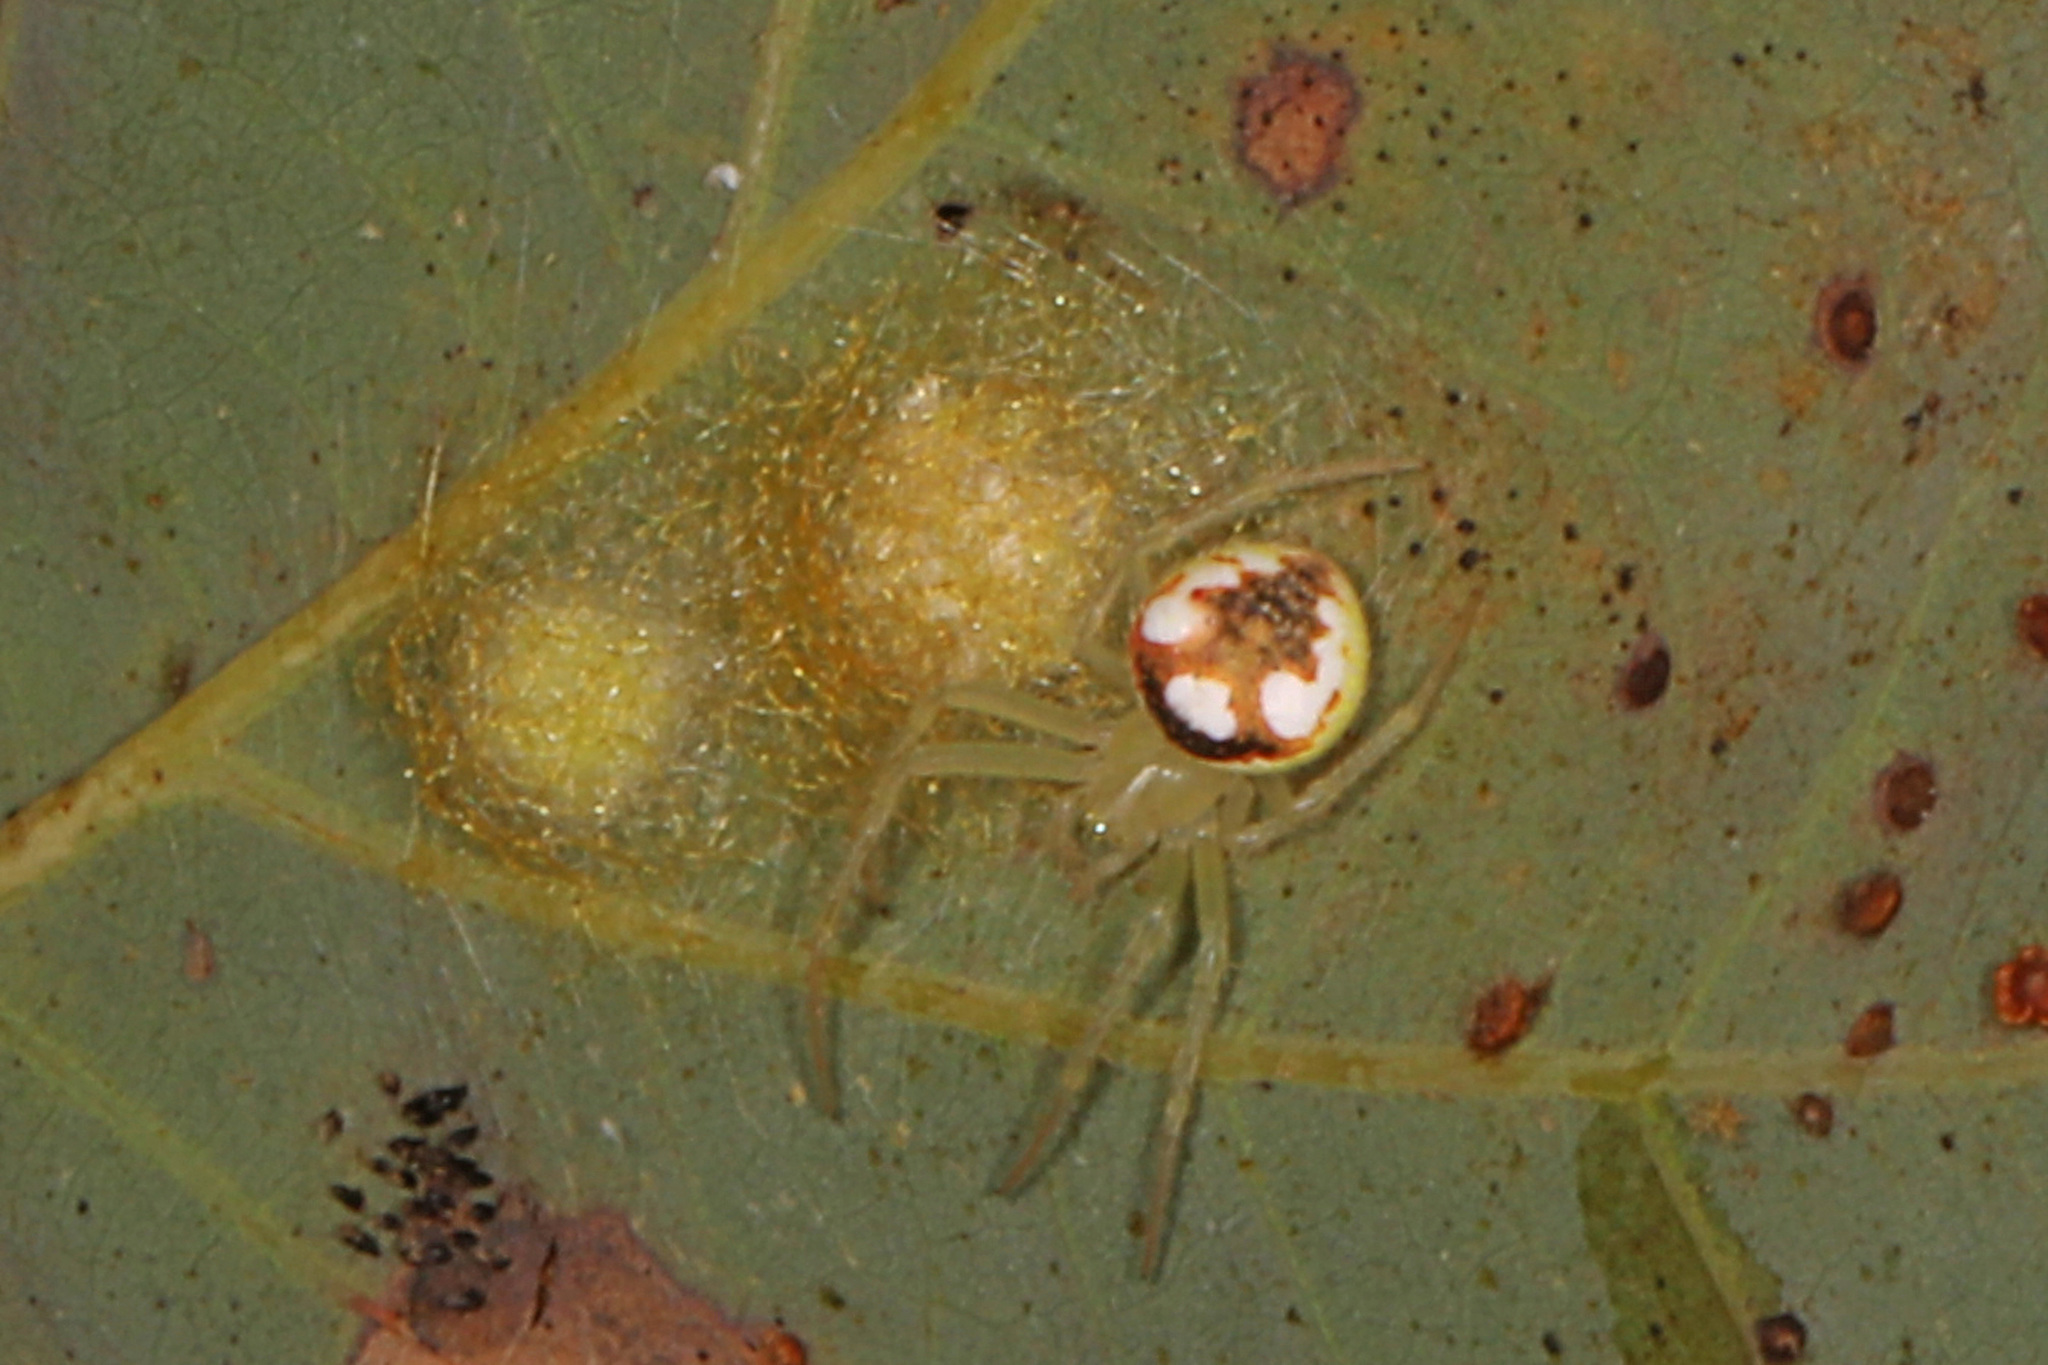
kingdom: Animalia
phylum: Arthropoda
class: Arachnida
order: Araneae
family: Araneidae
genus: Araneus
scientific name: Araneus guttulatus
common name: Red-backed orbweaver
